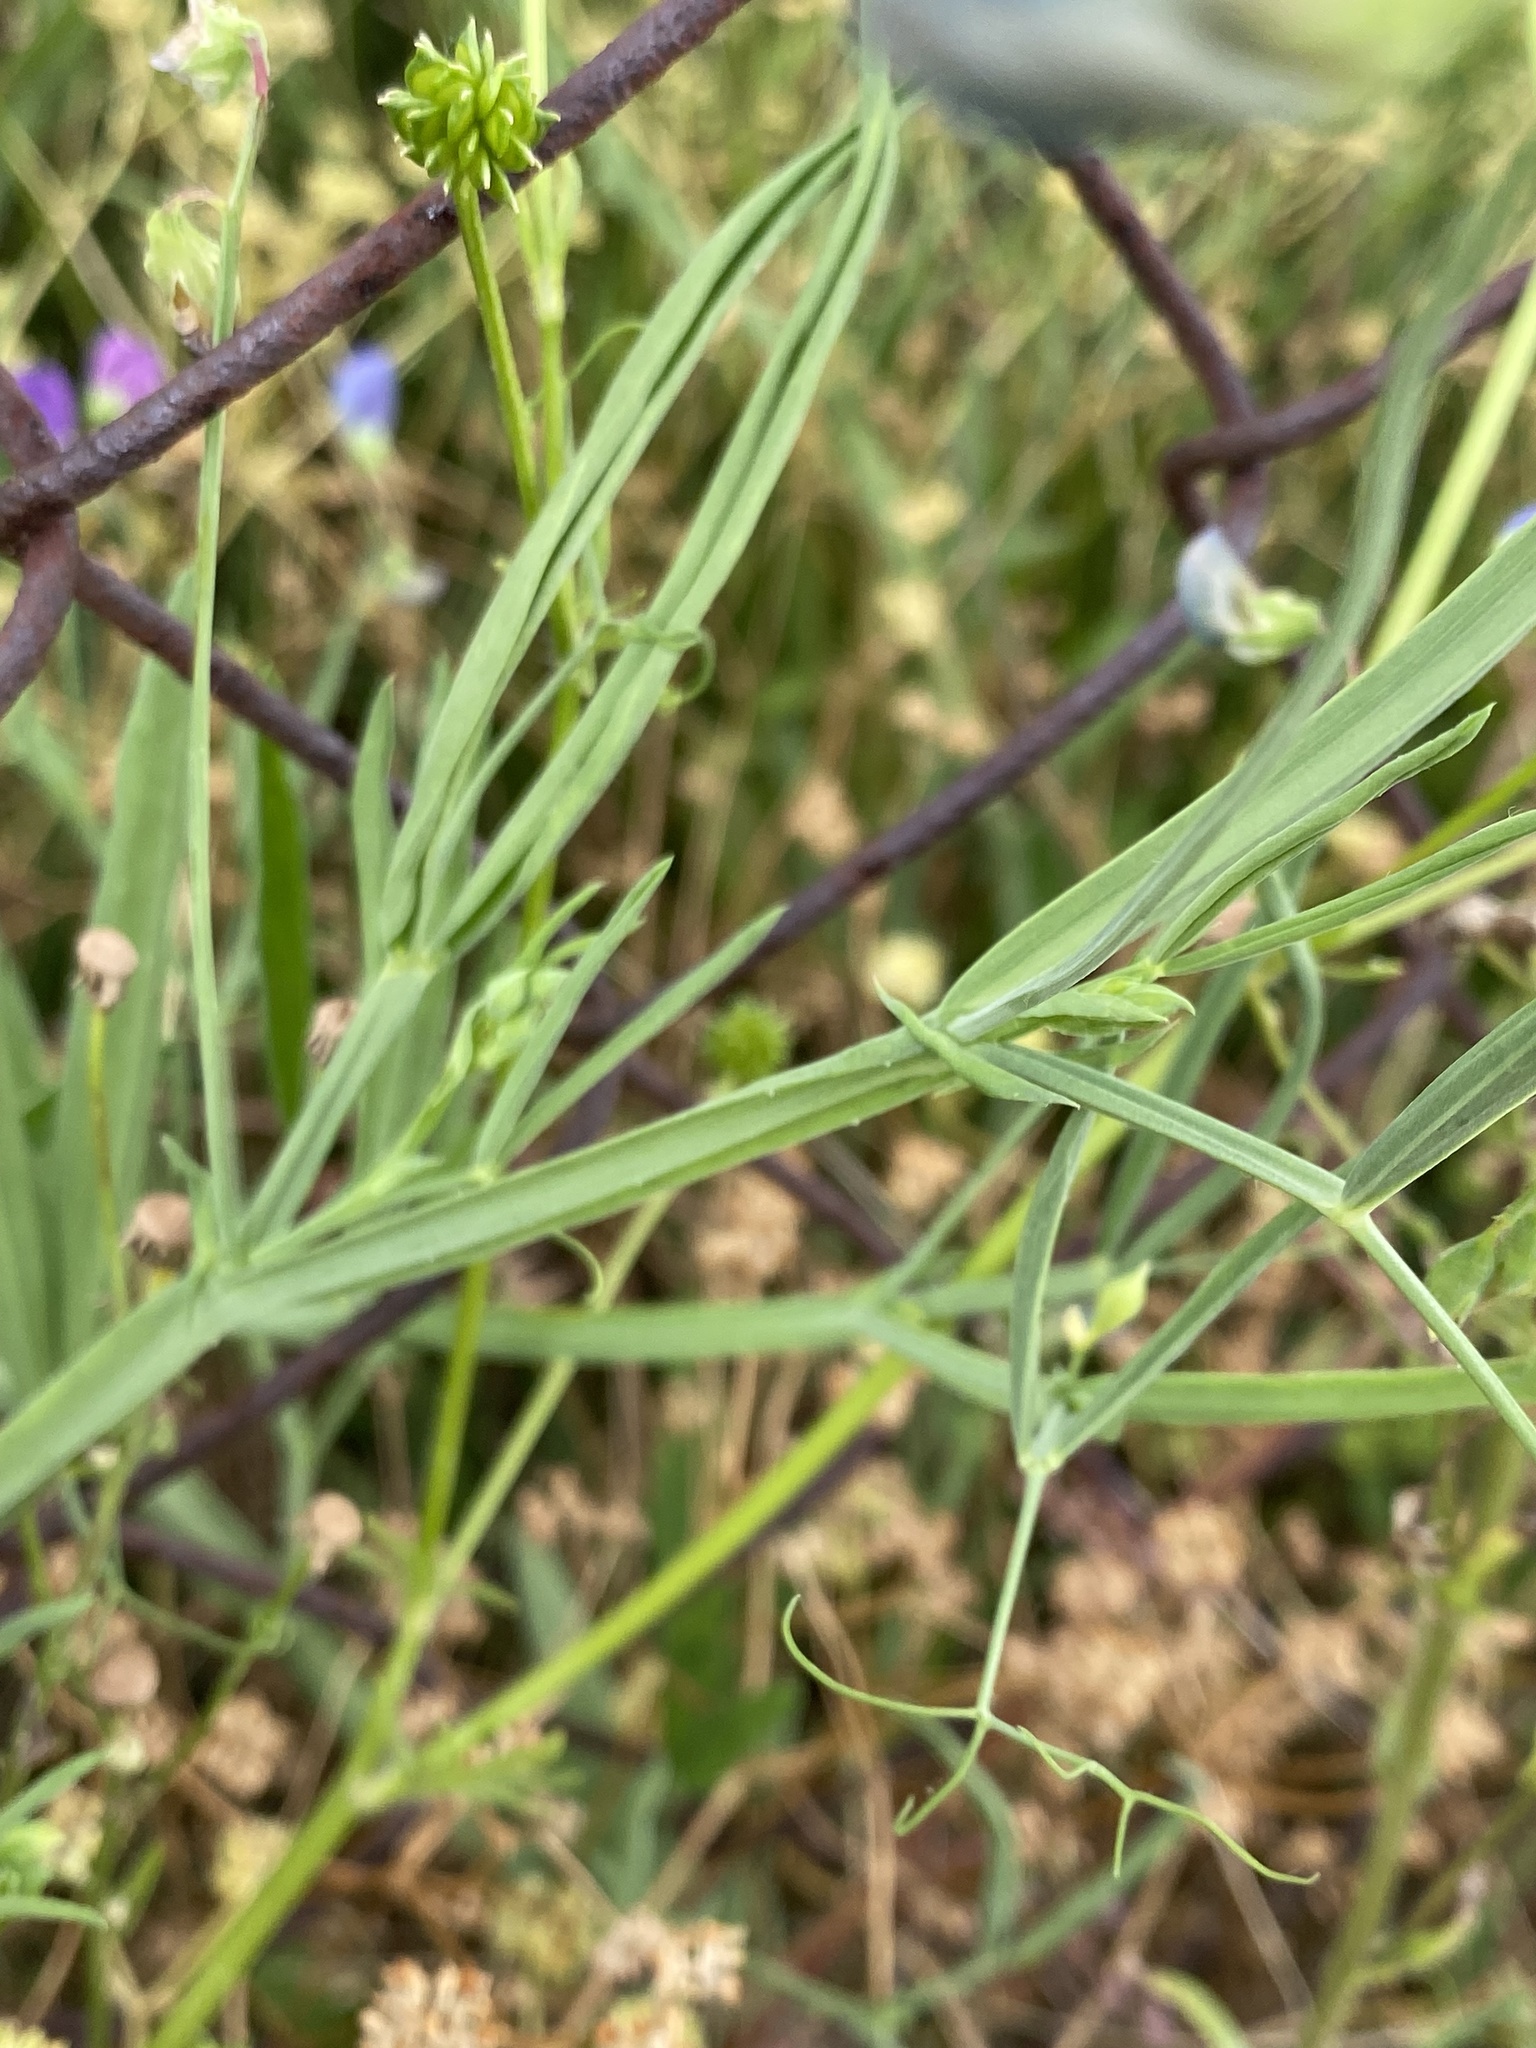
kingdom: Plantae
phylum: Tracheophyta
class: Magnoliopsida
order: Fabales
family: Fabaceae
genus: Lathyrus
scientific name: Lathyrus hirsutus
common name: Hairy vetchling
